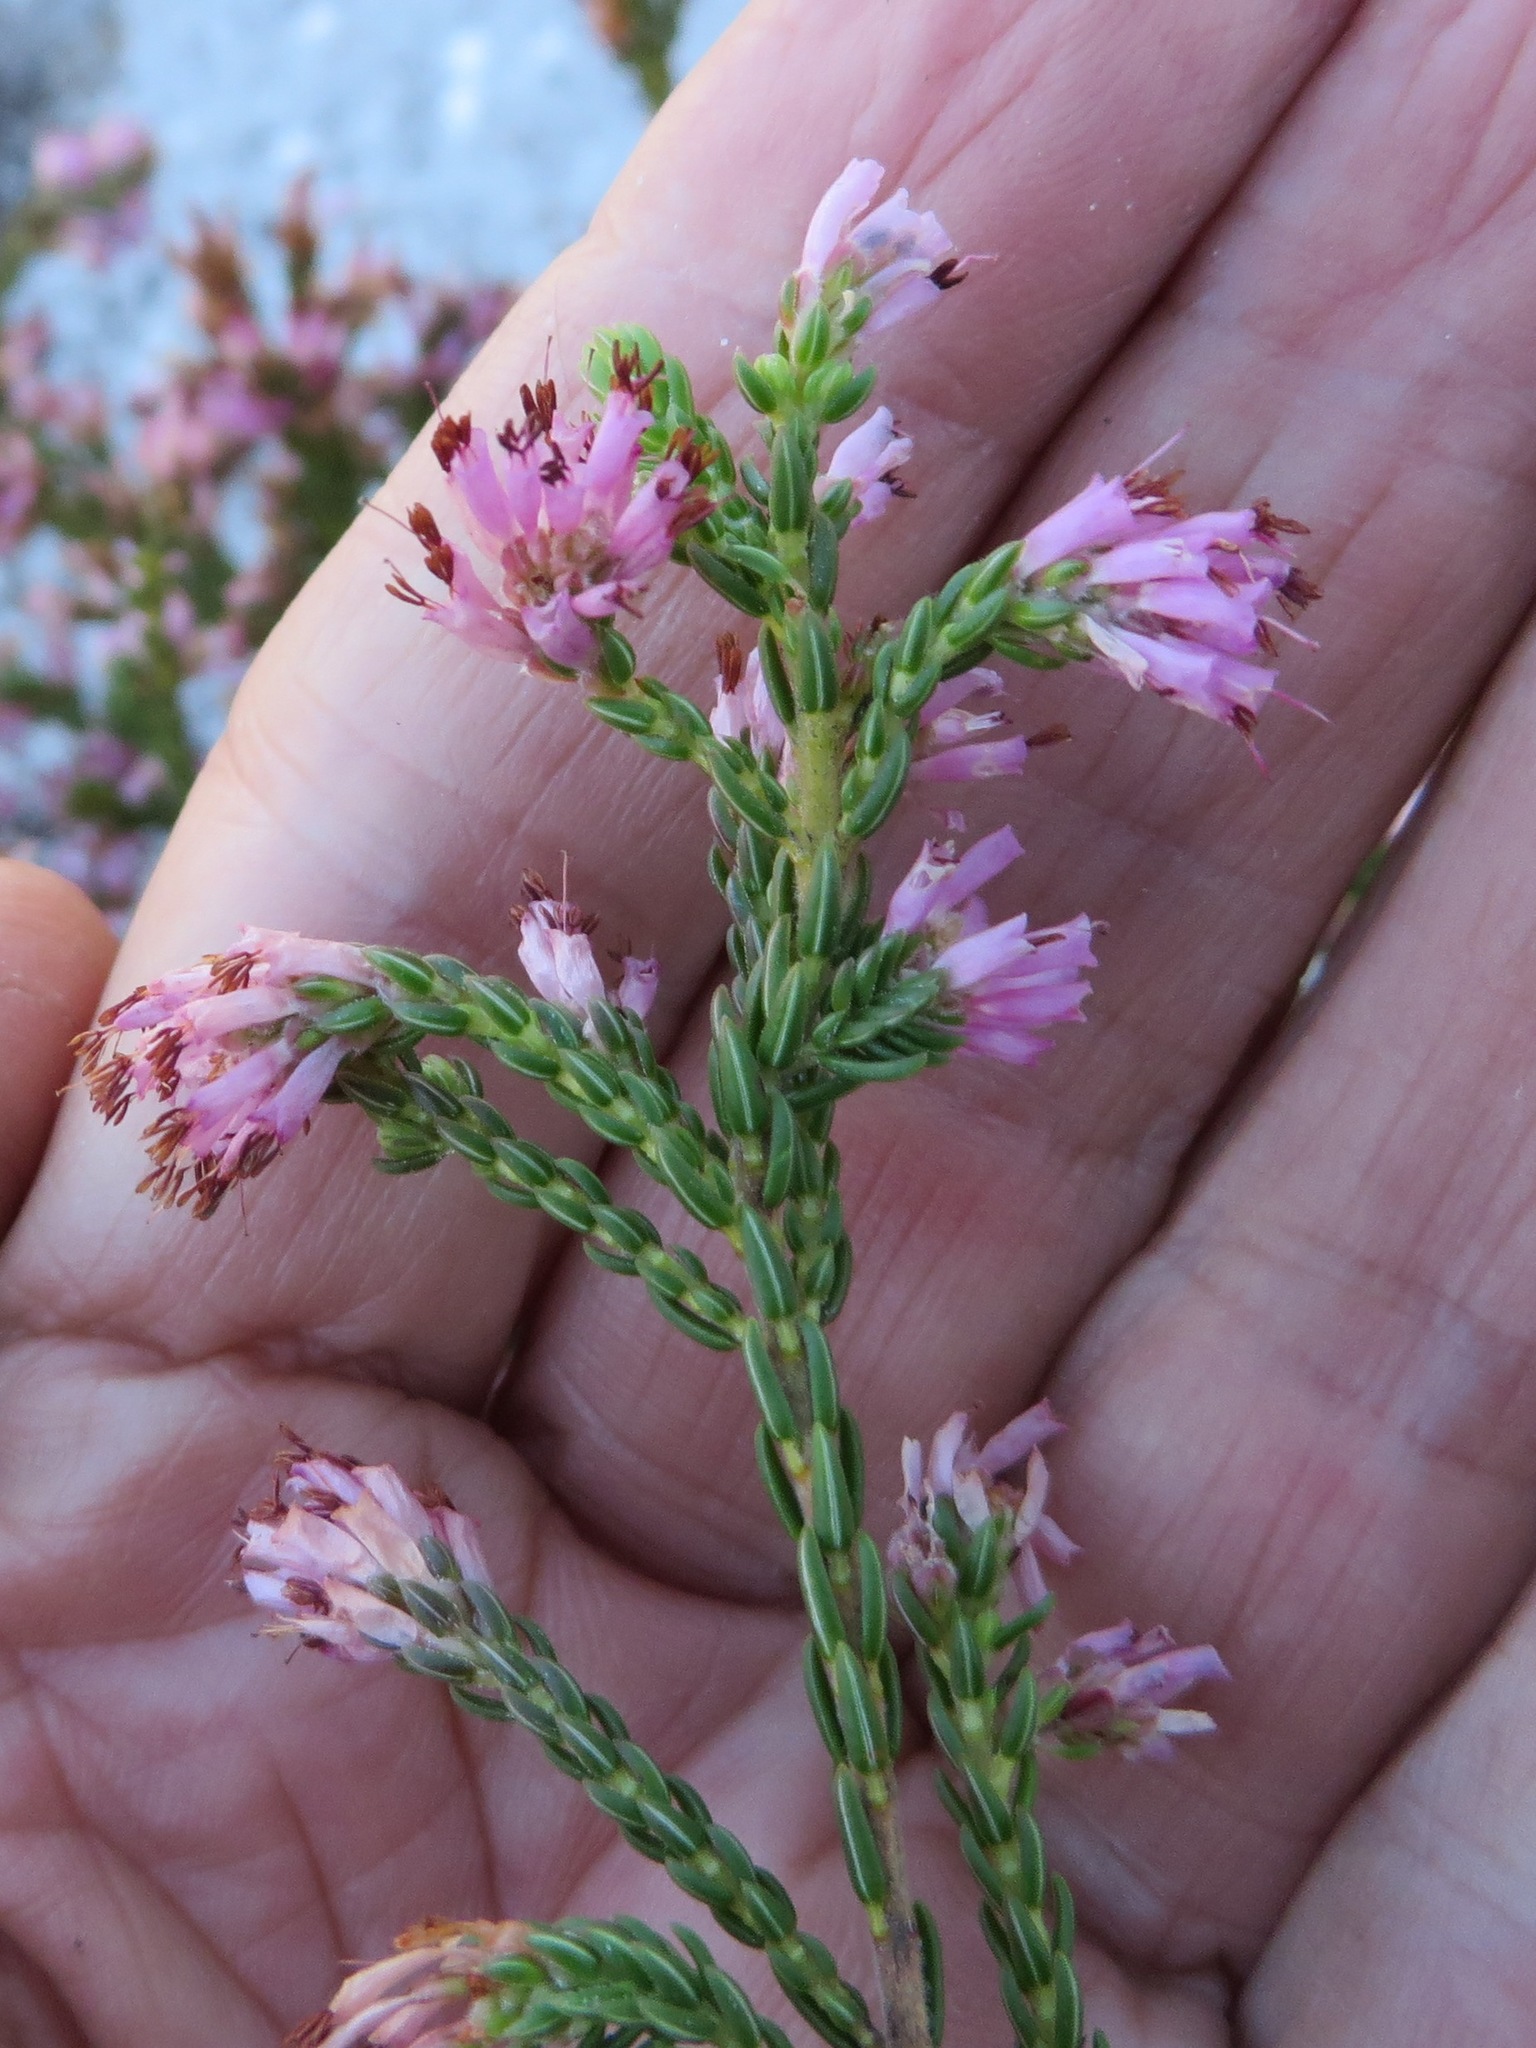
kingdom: Plantae
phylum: Tracheophyta
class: Magnoliopsida
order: Ericales
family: Ericaceae
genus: Erica
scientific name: Erica labialis
